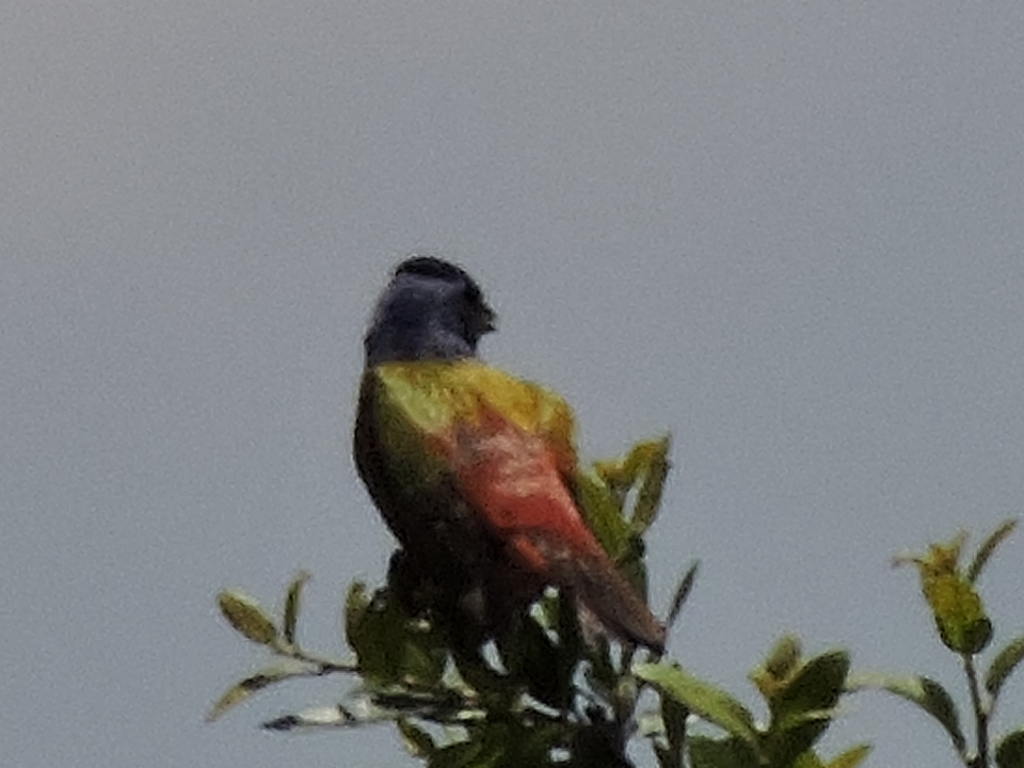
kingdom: Animalia
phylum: Chordata
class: Aves
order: Passeriformes
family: Cardinalidae
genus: Passerina
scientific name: Passerina ciris
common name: Painted bunting
